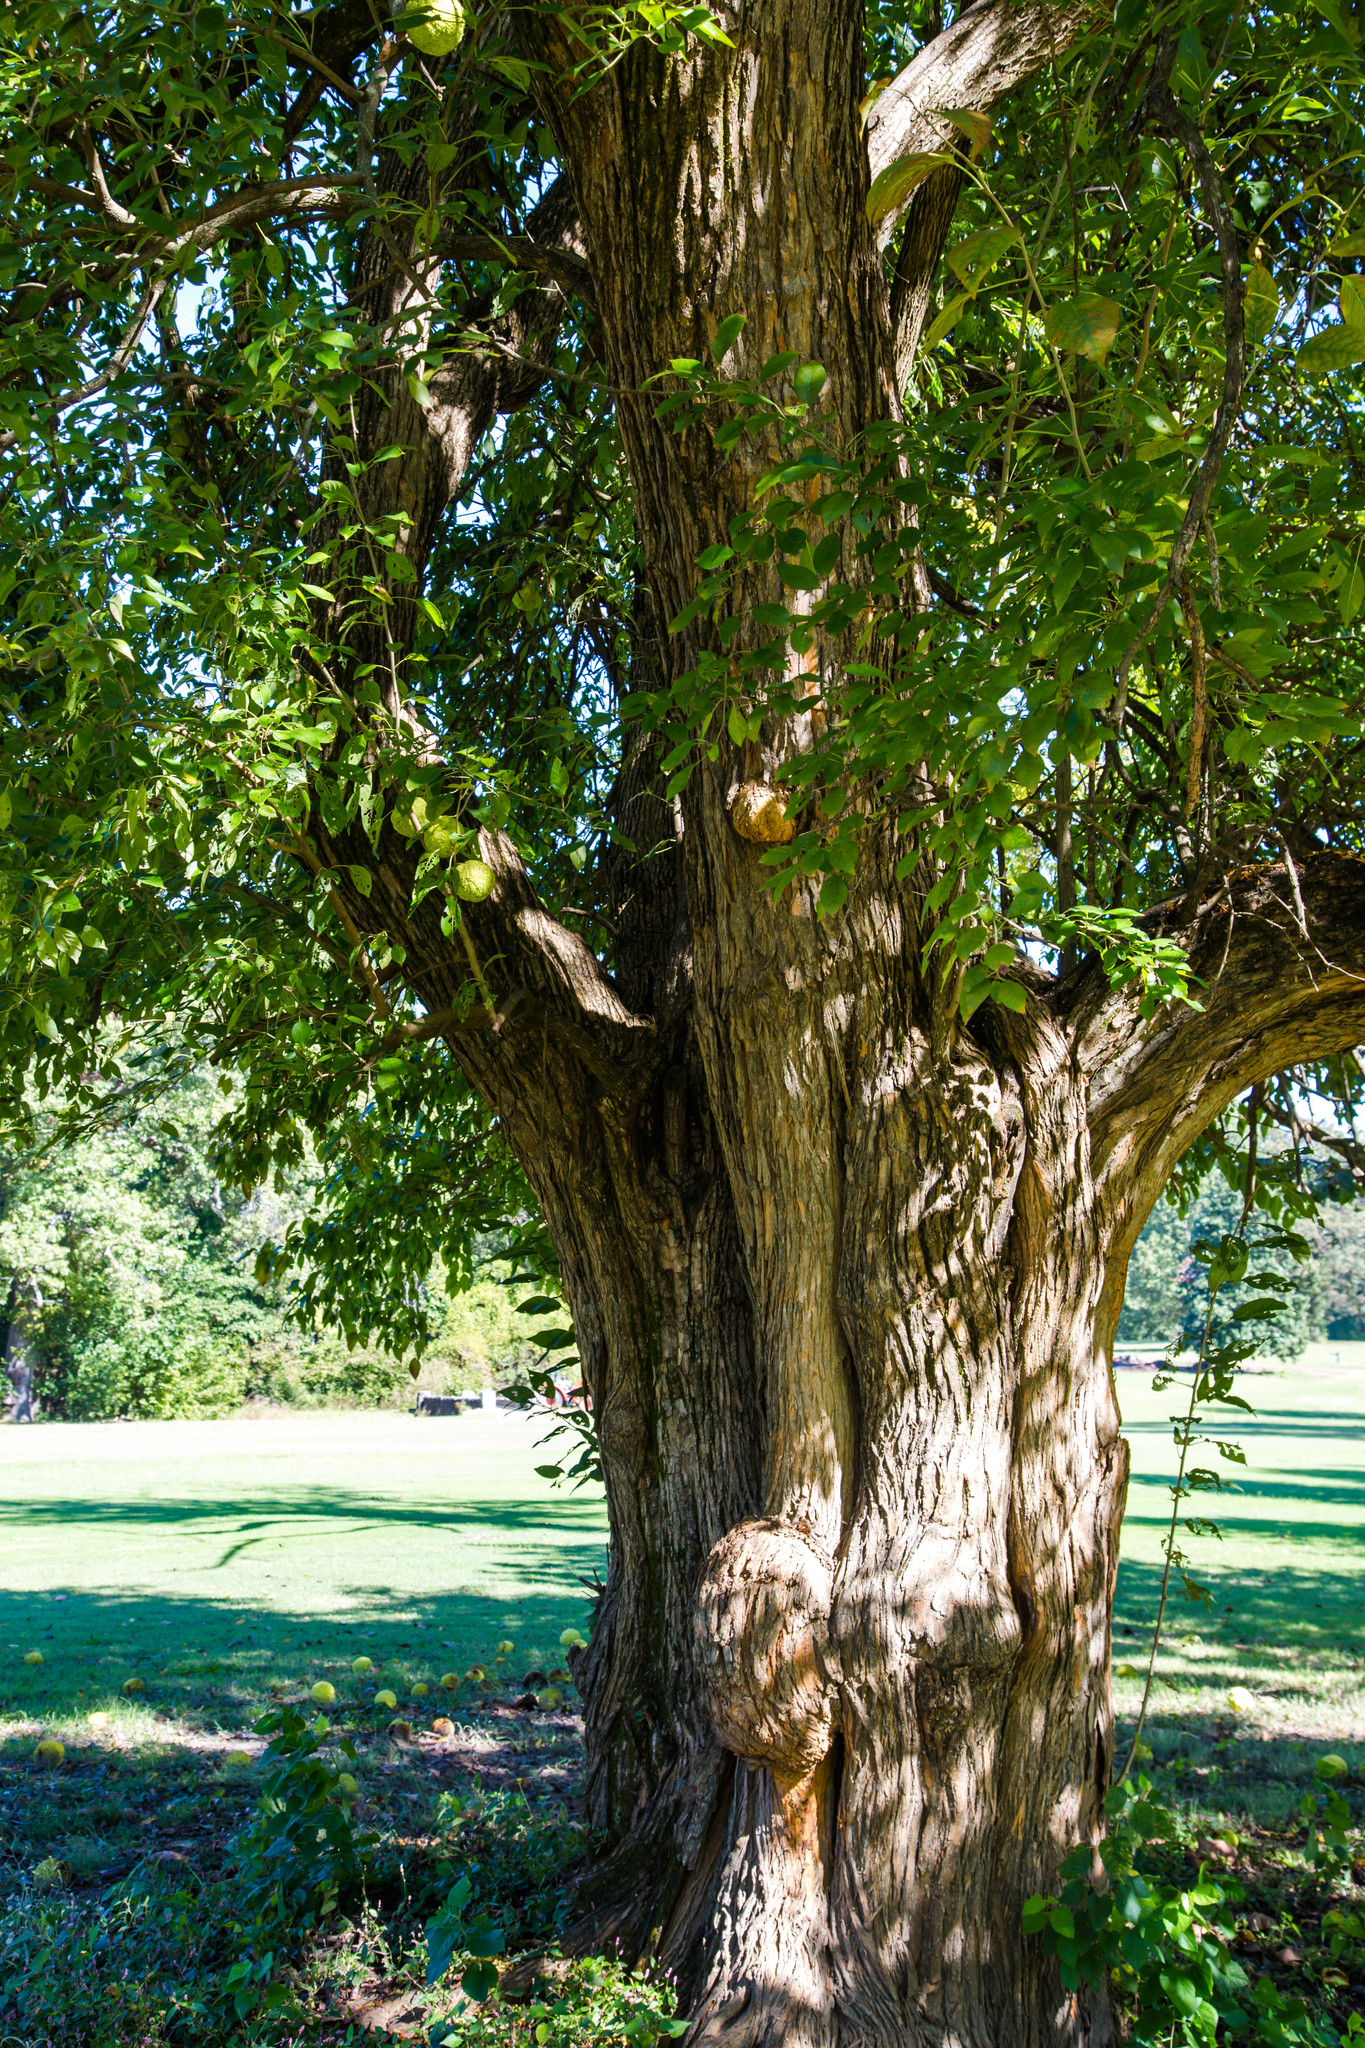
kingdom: Plantae
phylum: Tracheophyta
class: Magnoliopsida
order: Rosales
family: Moraceae
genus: Maclura
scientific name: Maclura pomifera
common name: Osage-orange
